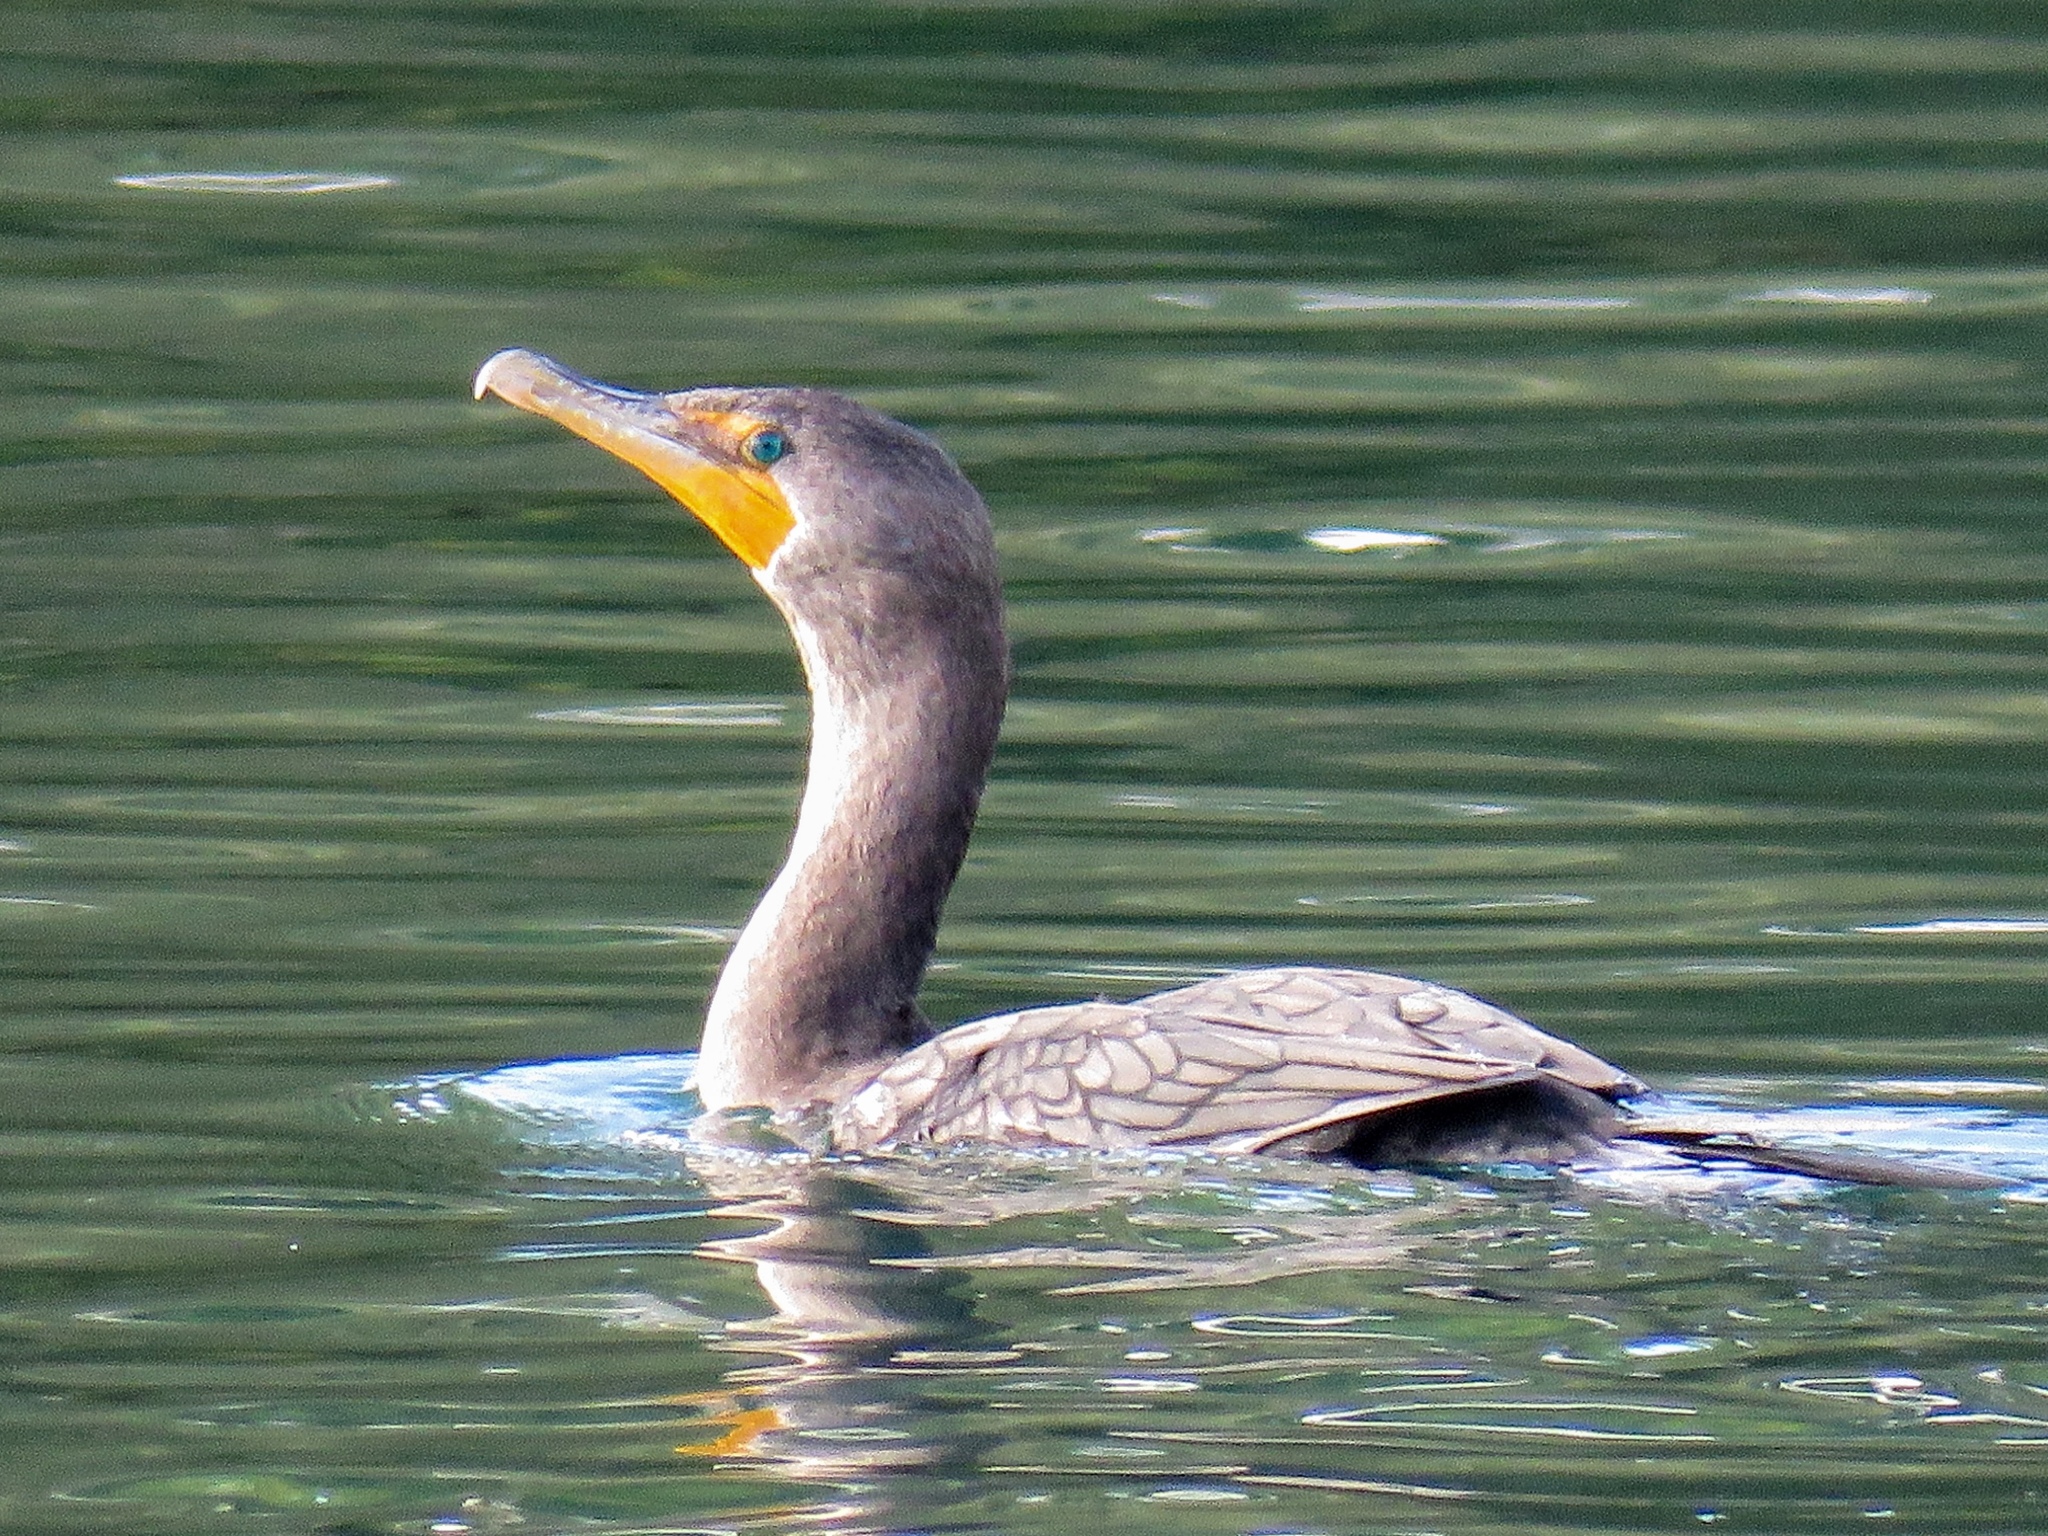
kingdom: Animalia
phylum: Chordata
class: Aves
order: Suliformes
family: Phalacrocoracidae
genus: Phalacrocorax
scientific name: Phalacrocorax auritus
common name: Double-crested cormorant
